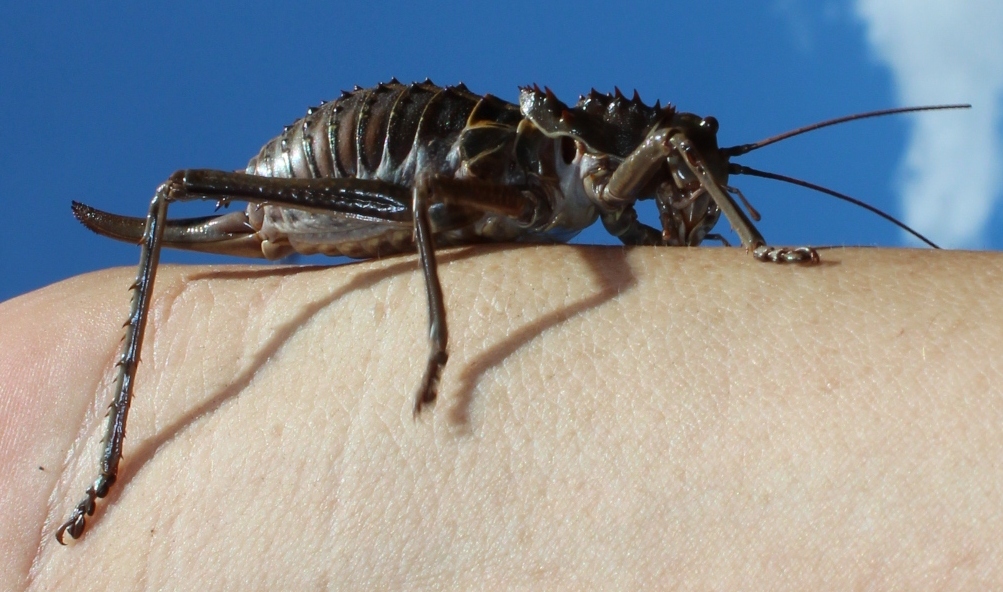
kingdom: Animalia
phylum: Arthropoda
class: Insecta
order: Orthoptera
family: Tettigoniidae
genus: Hetrodes
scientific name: Hetrodes pupus
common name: Koringkriek
